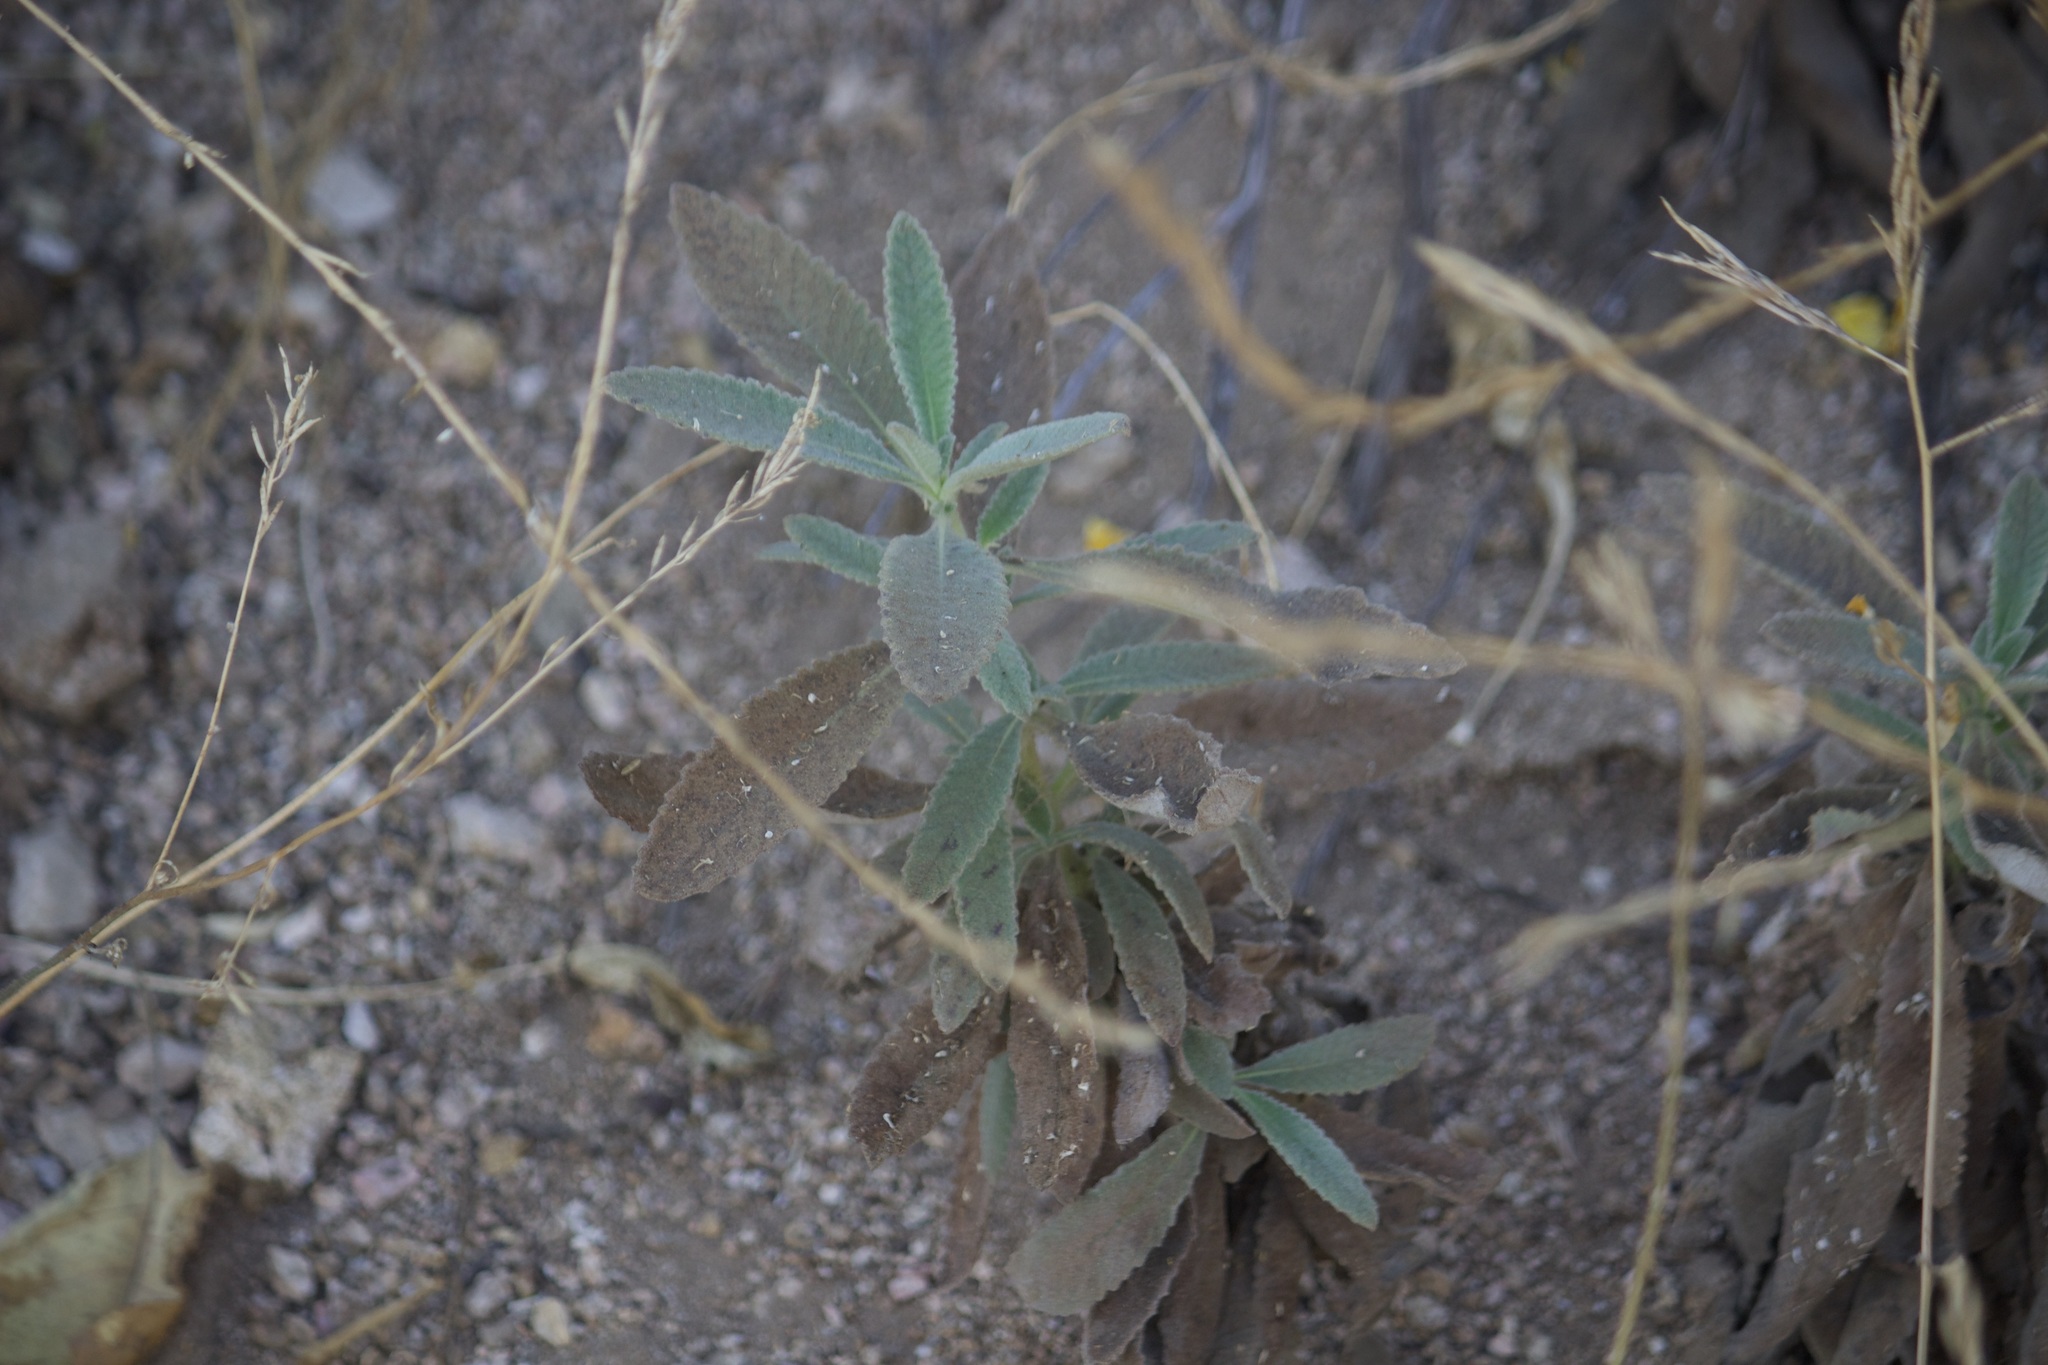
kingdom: Plantae
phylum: Tracheophyta
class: Magnoliopsida
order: Boraginales
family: Namaceae
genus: Eriodictyon
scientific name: Eriodictyon crassifolium
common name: Thick-leaf yerba-santa
